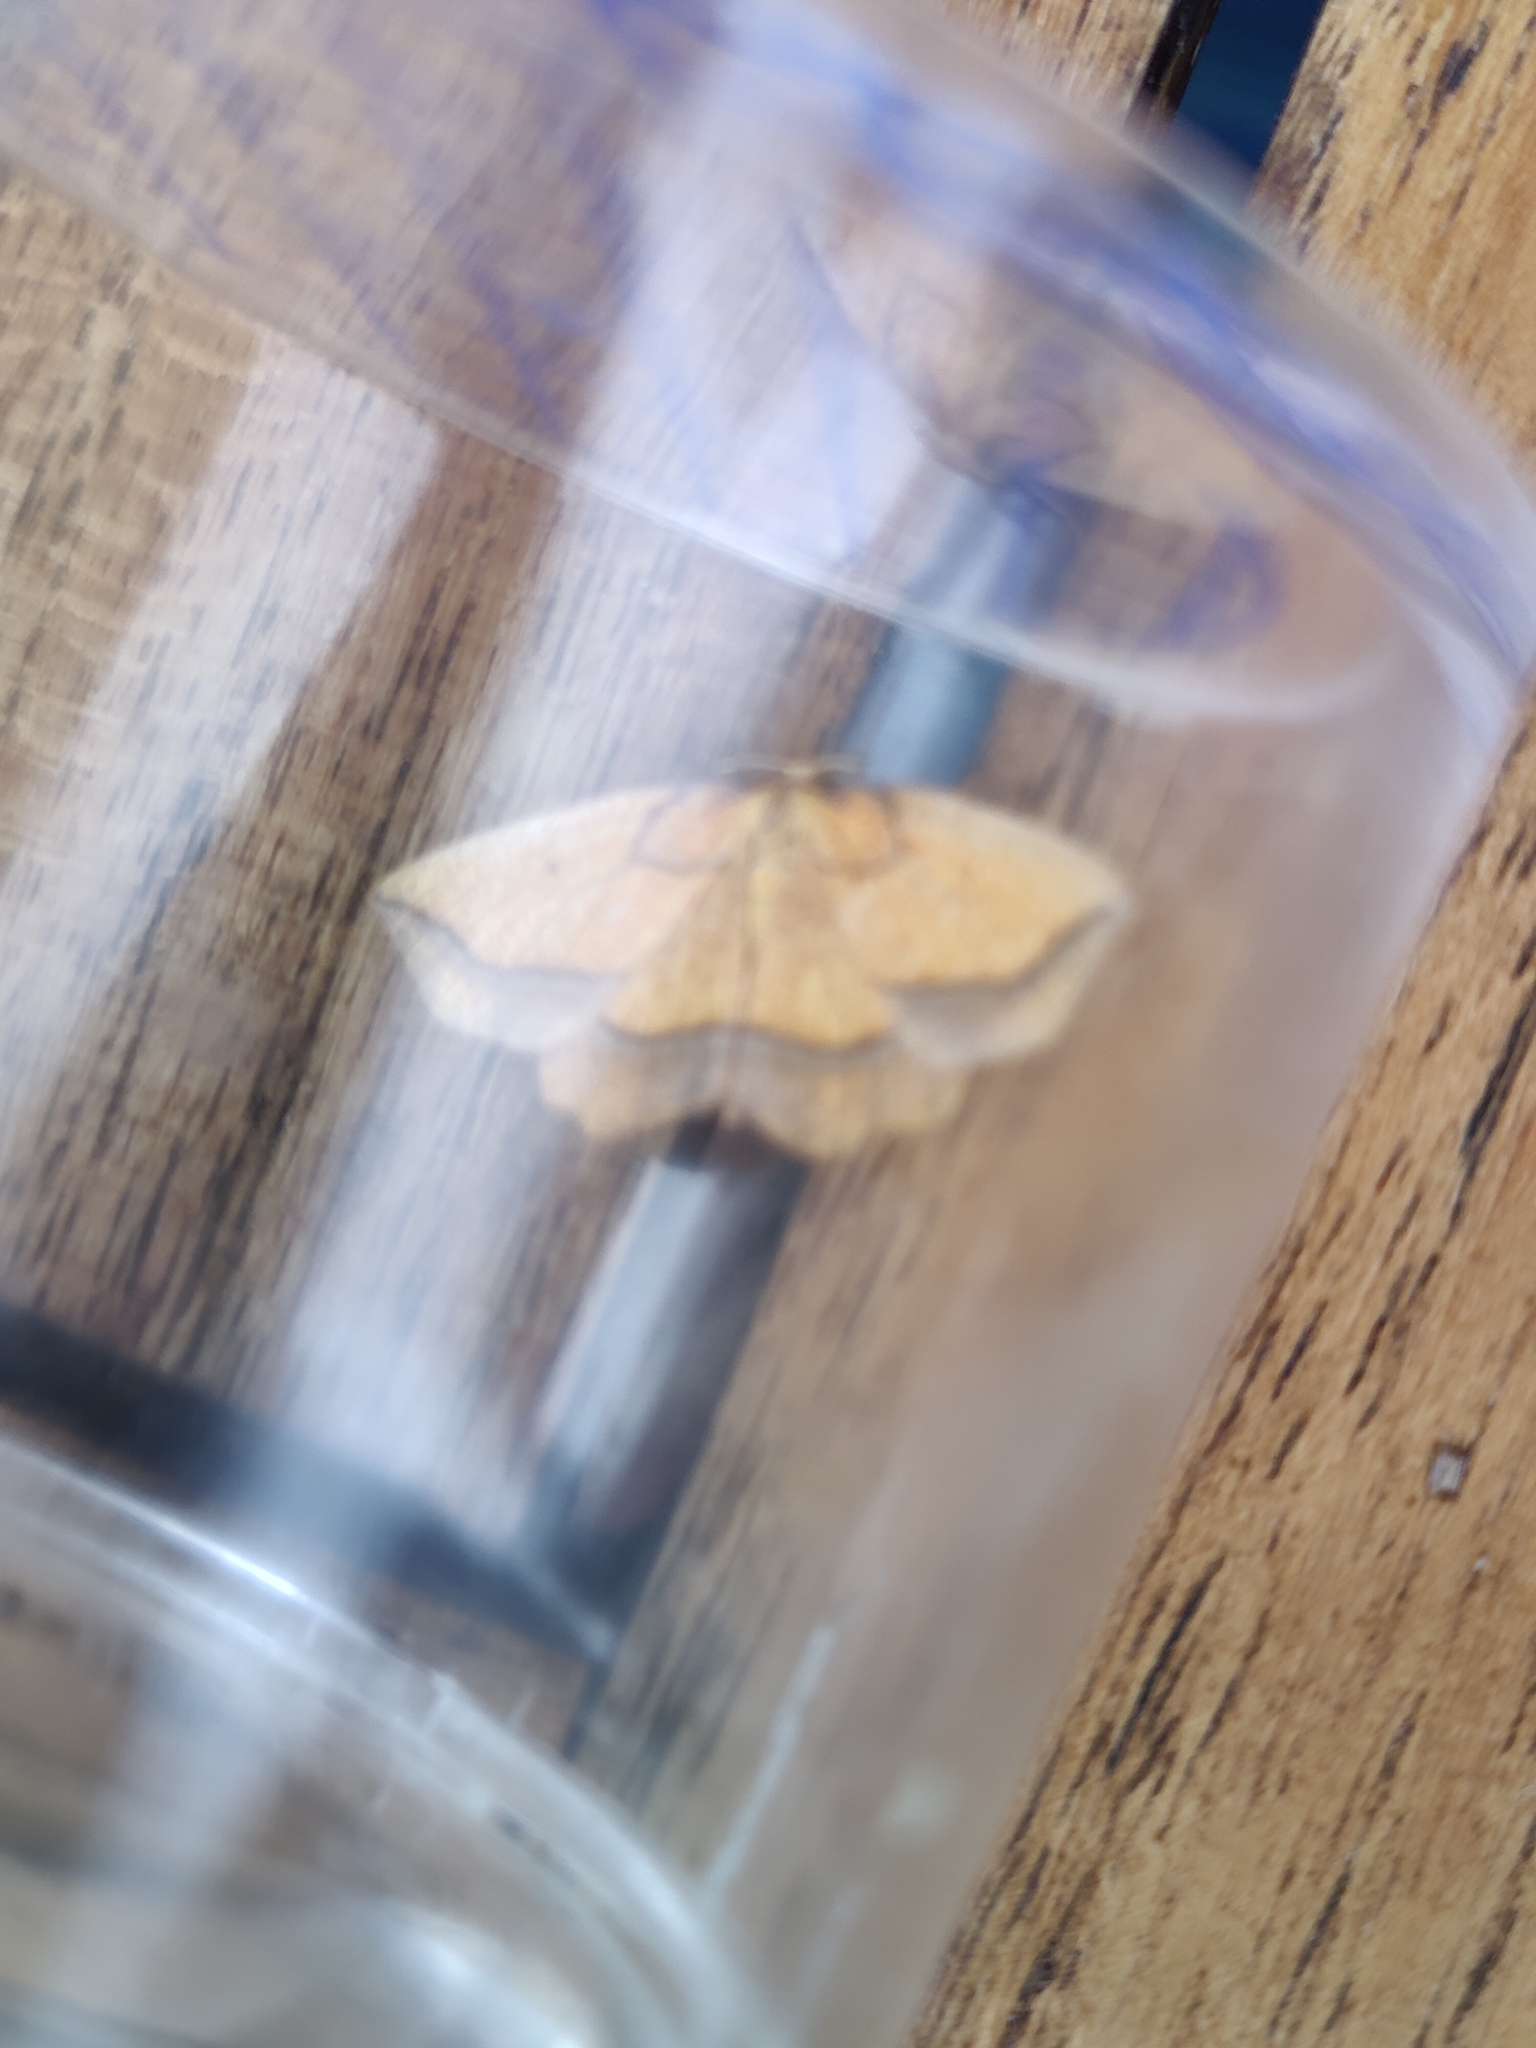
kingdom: Animalia
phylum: Arthropoda
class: Insecta
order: Lepidoptera
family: Geometridae
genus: Epione
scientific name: Epione repandaria
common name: Bordered beauty
